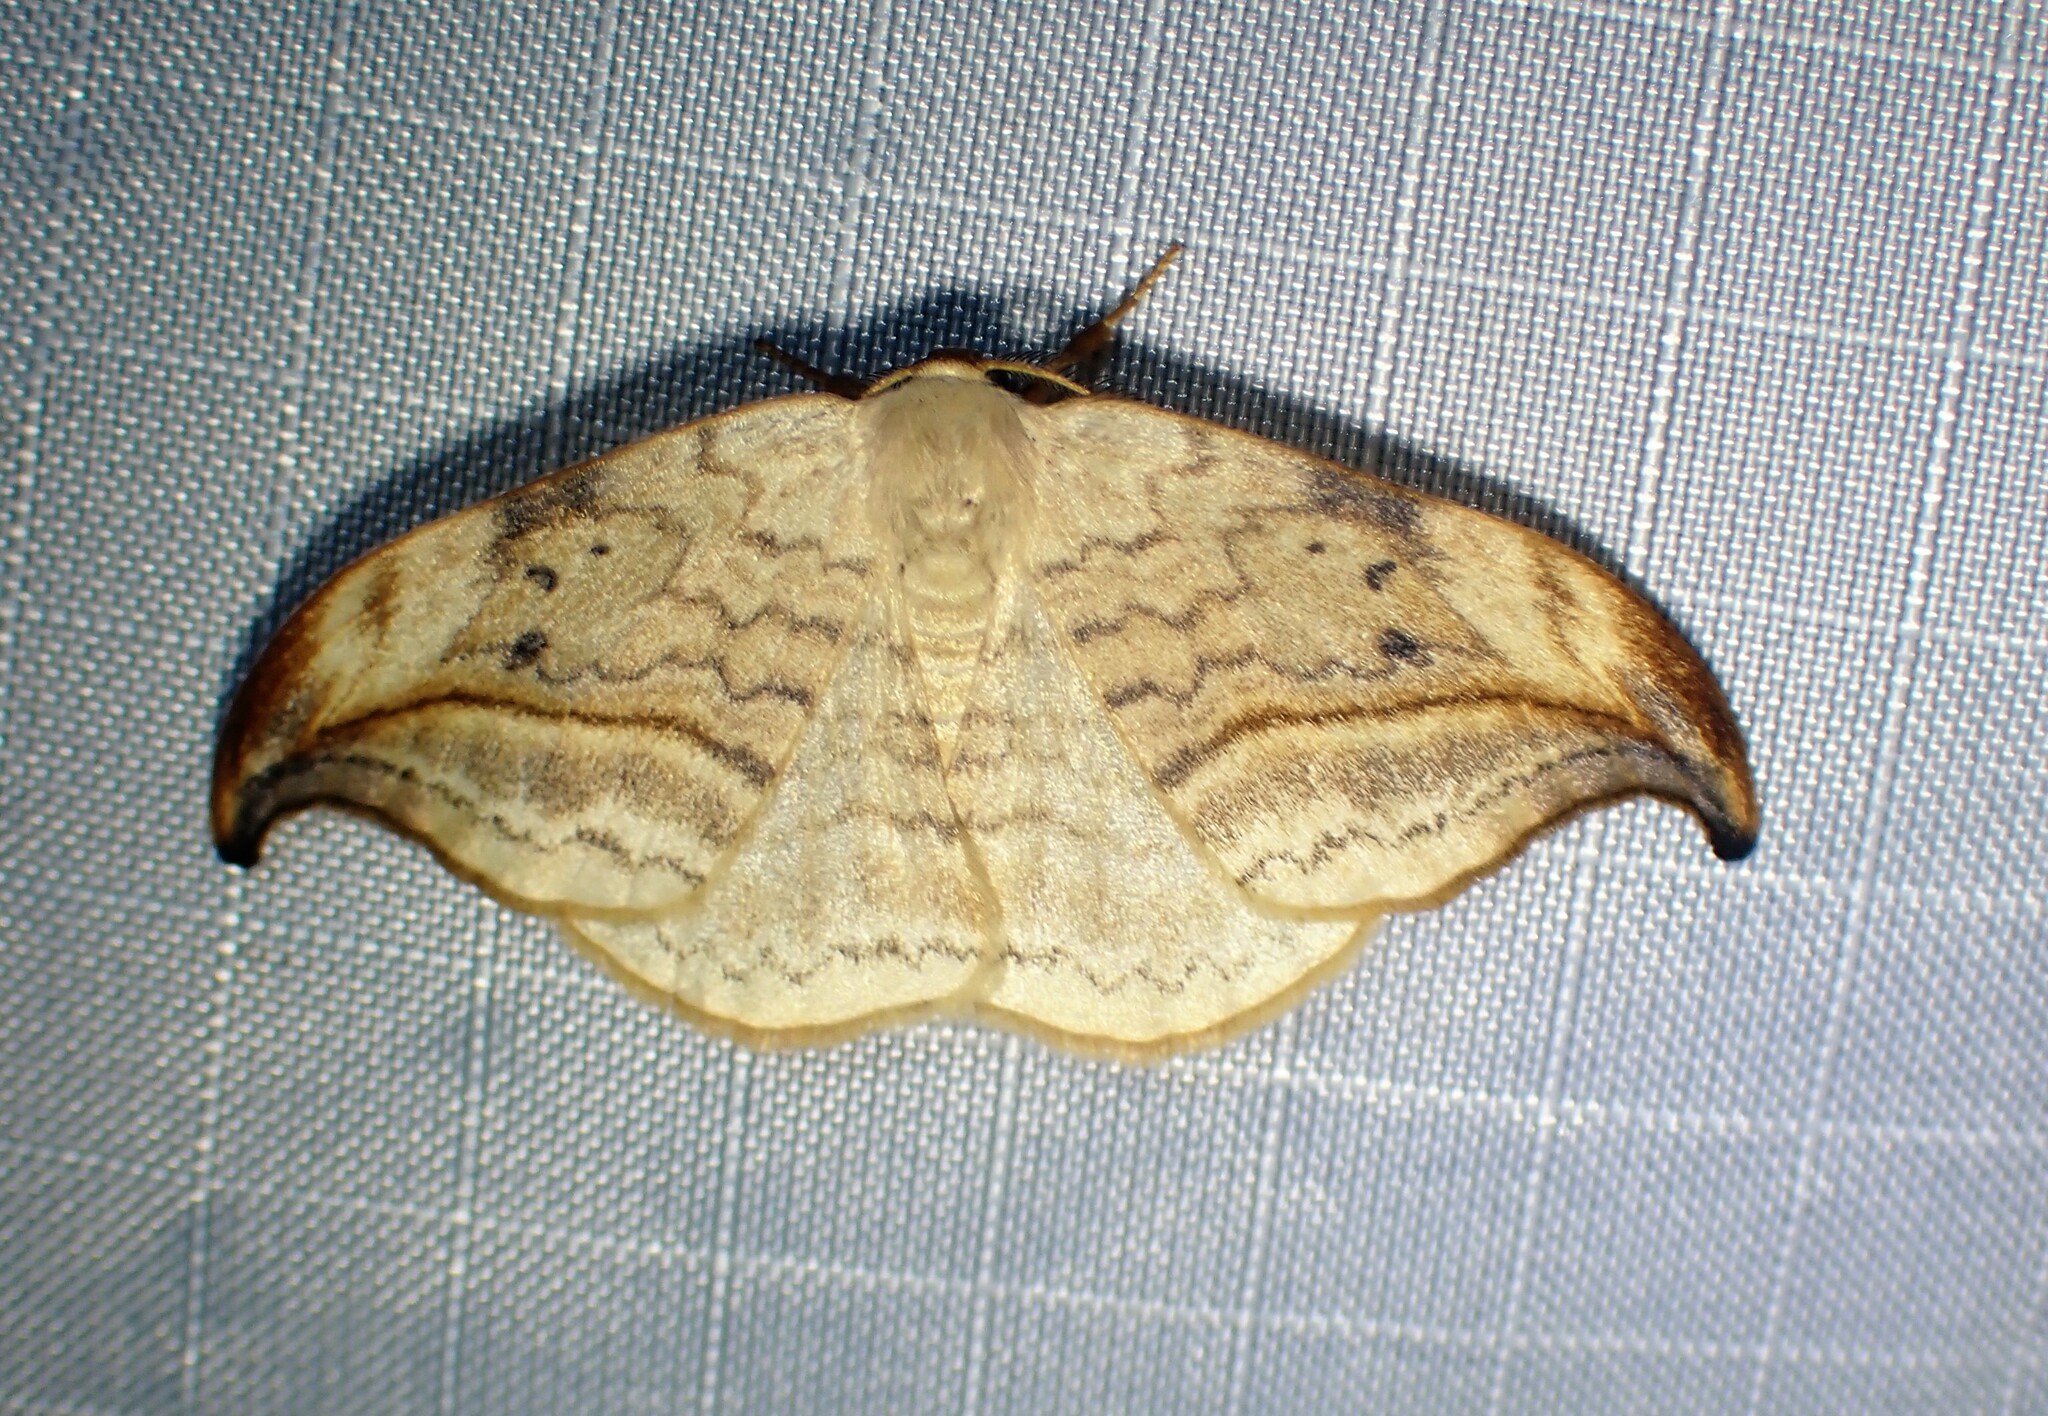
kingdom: Animalia
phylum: Arthropoda
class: Insecta
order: Lepidoptera
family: Drepanidae
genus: Drepana
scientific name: Drepana arcuata
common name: Arched hooktip moth
